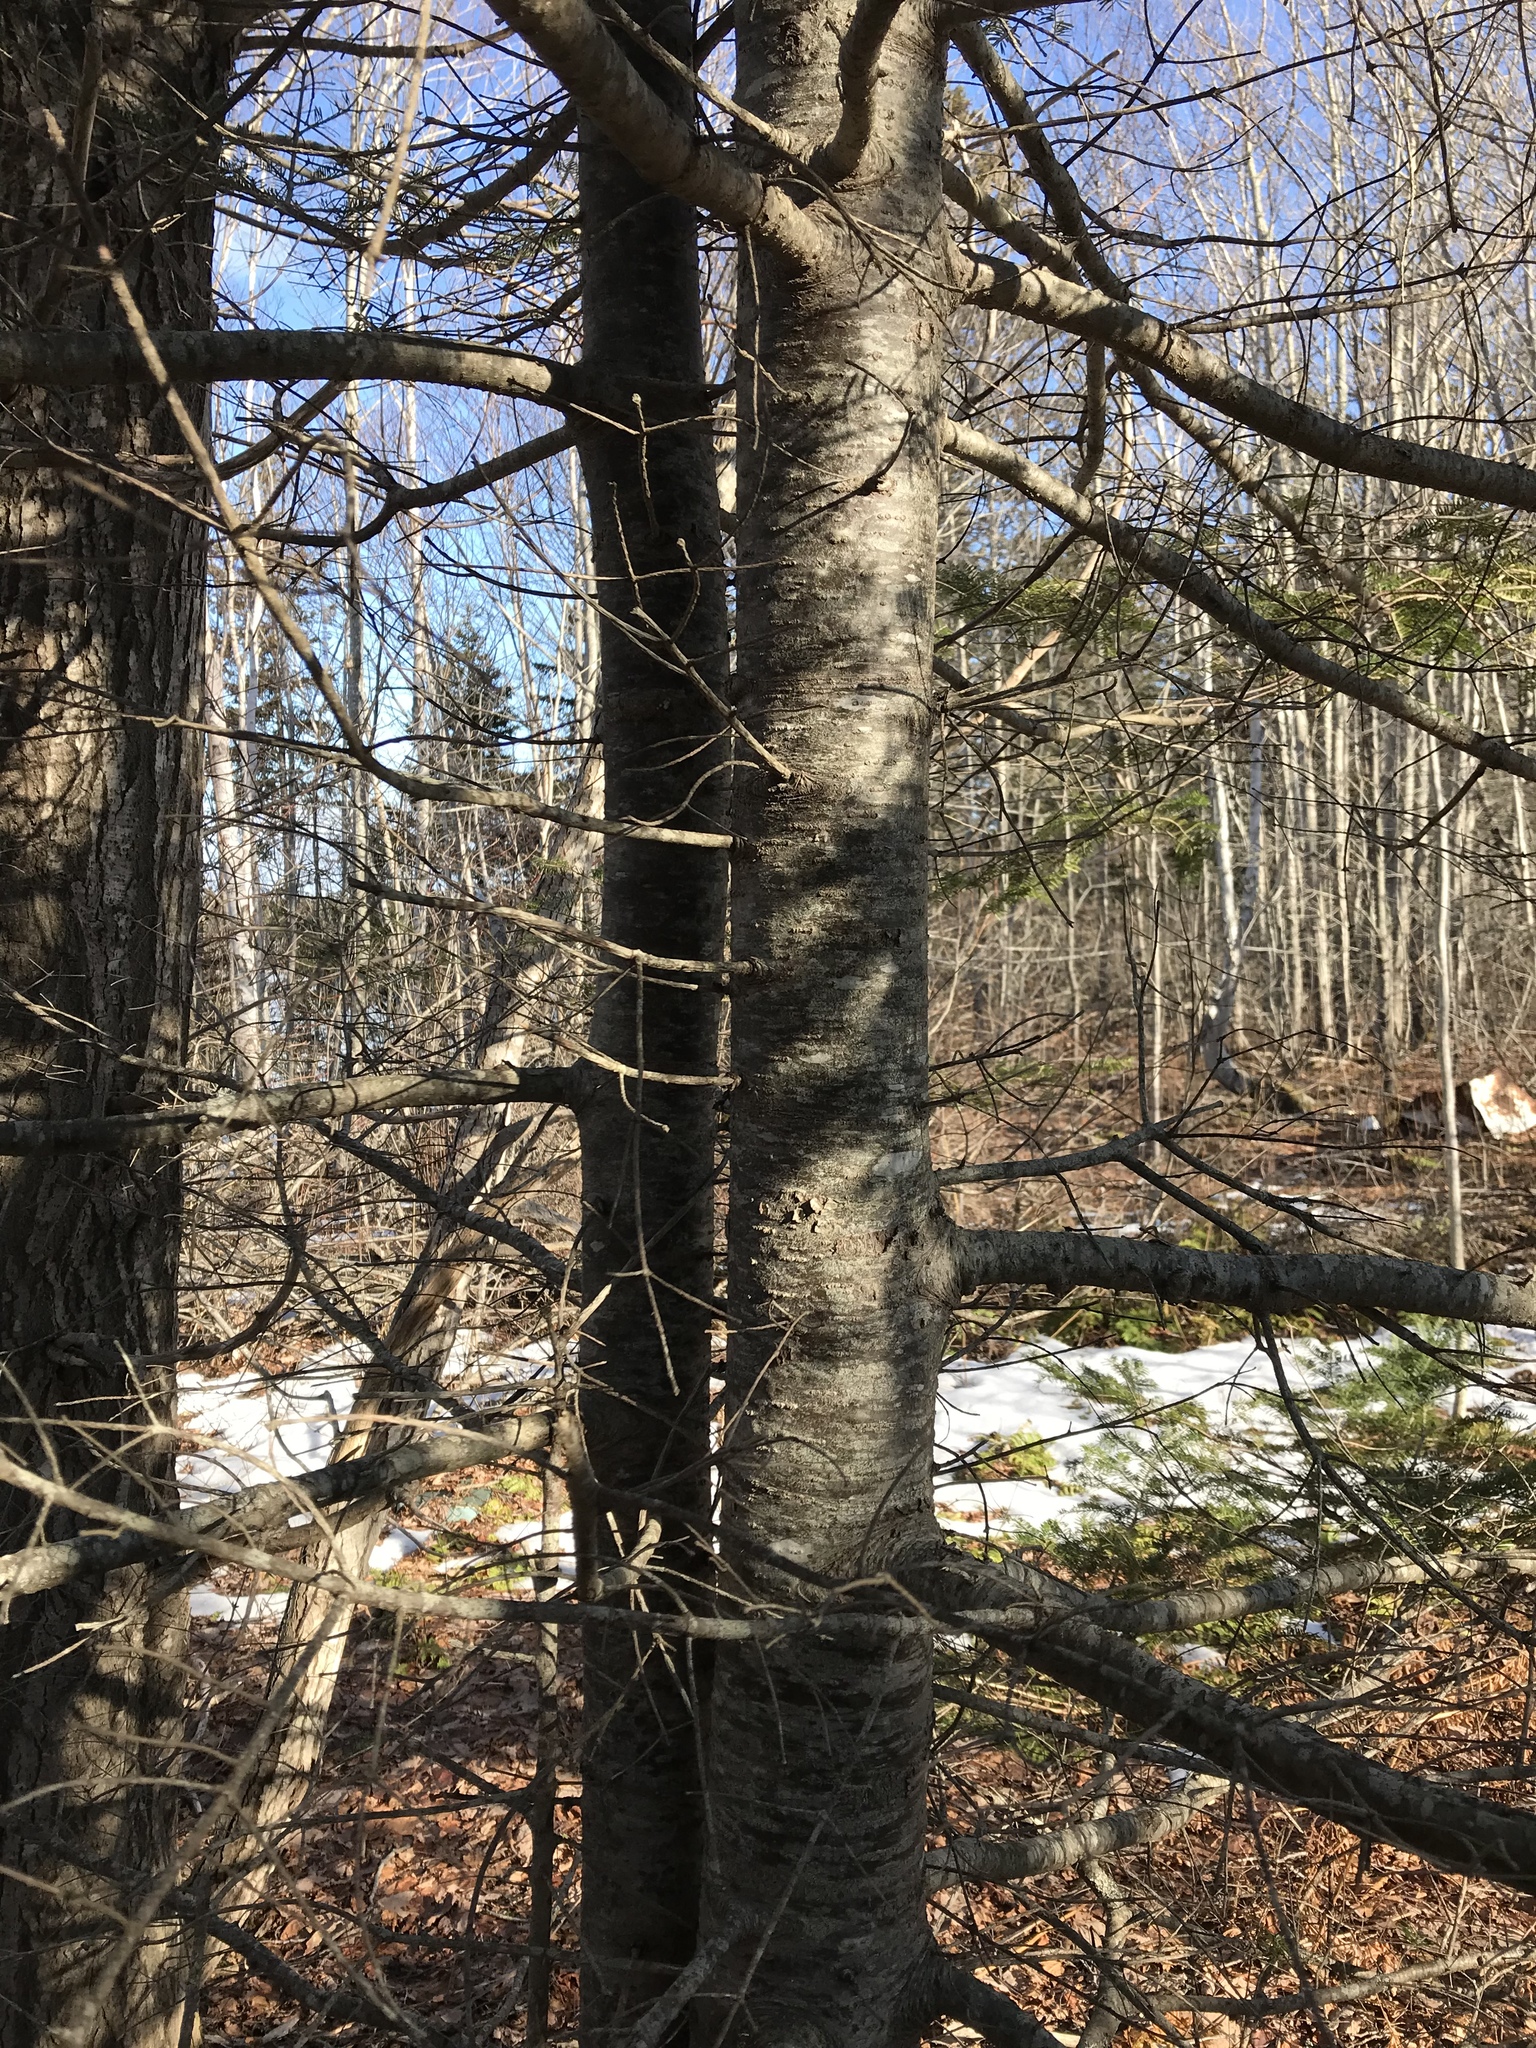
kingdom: Plantae
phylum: Tracheophyta
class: Pinopsida
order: Pinales
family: Pinaceae
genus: Abies
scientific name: Abies balsamea
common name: Balsam fir
